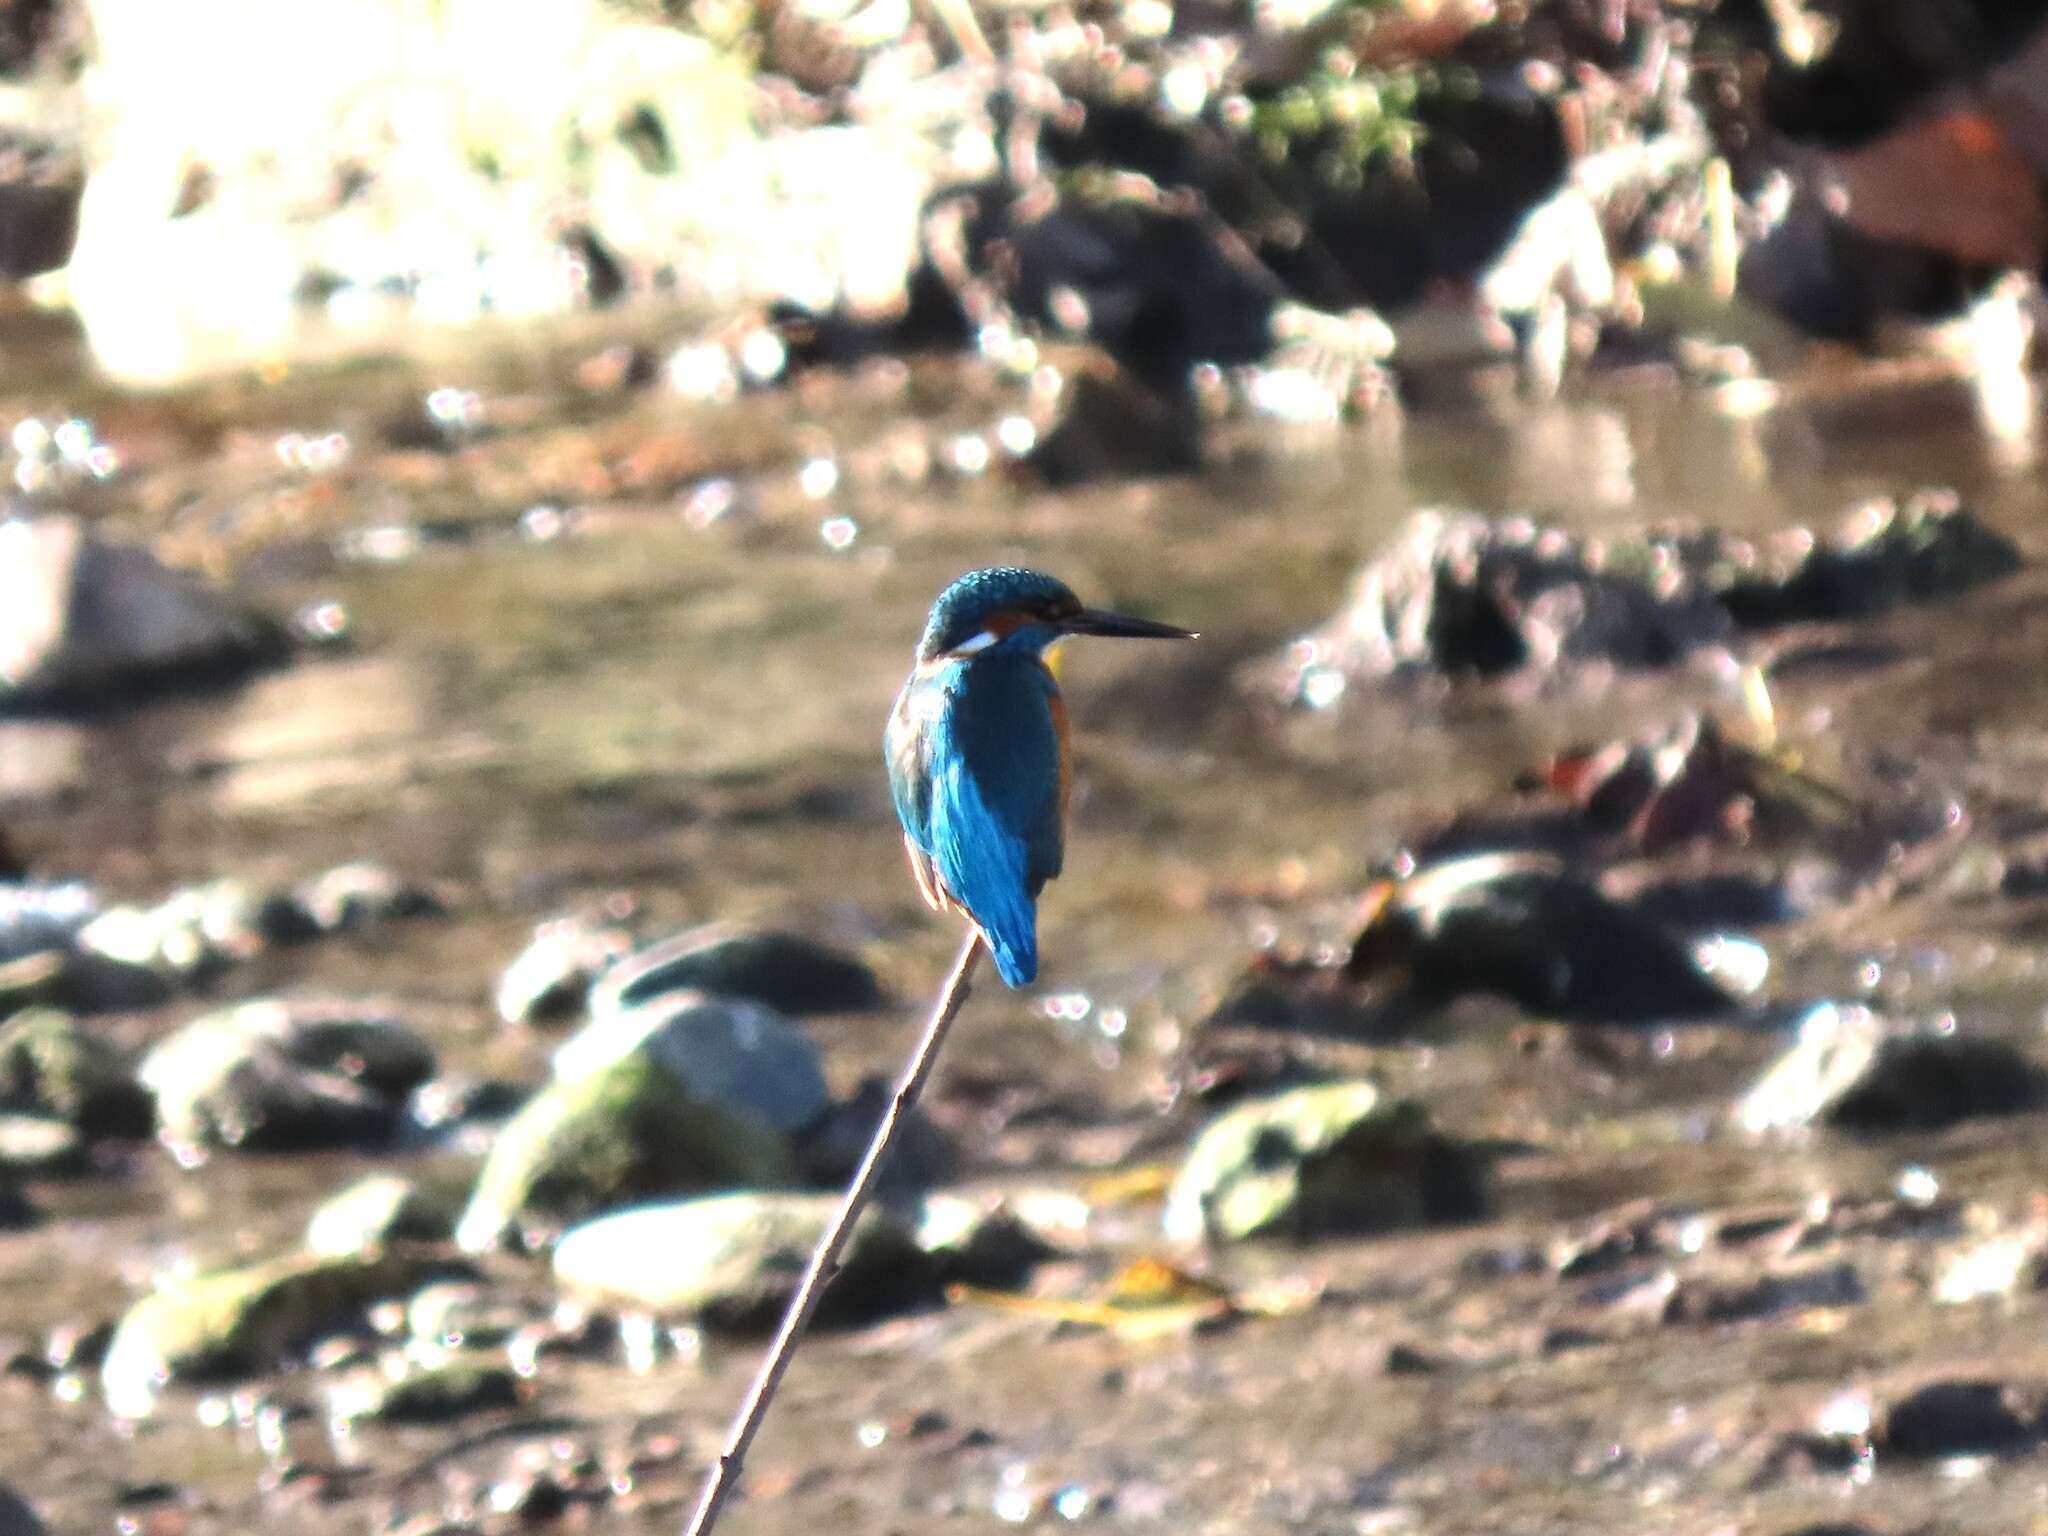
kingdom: Animalia
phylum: Chordata
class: Aves
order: Coraciiformes
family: Alcedinidae
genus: Alcedo
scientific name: Alcedo atthis
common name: Common kingfisher
